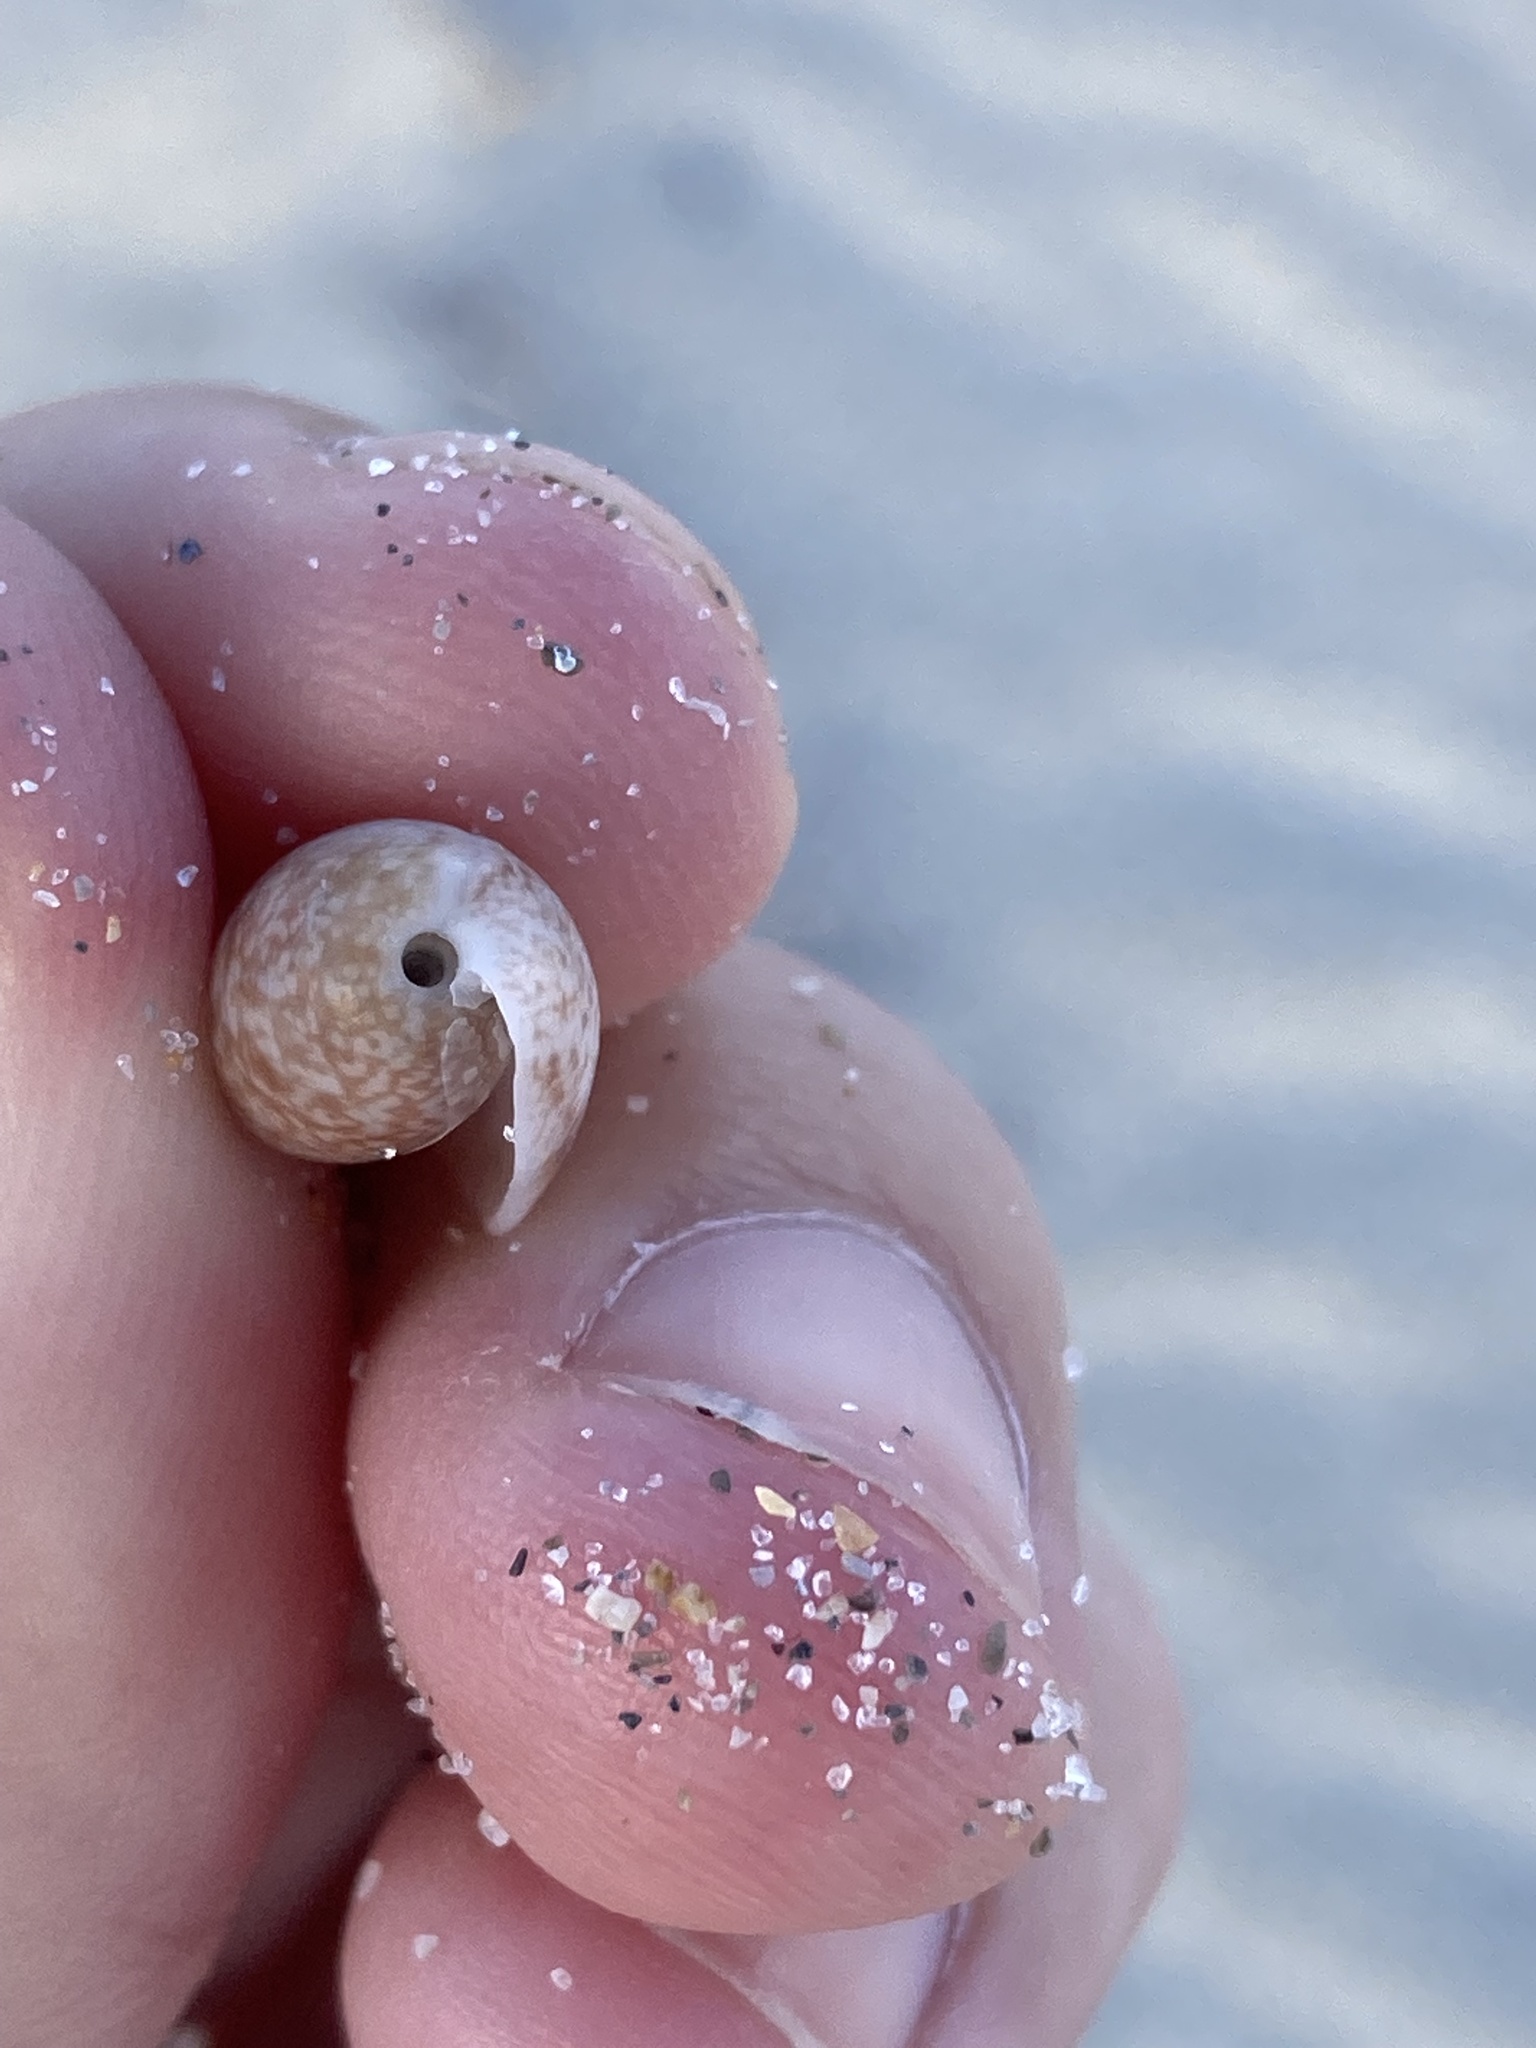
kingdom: Animalia
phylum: Mollusca
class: Gastropoda
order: Cephalaspidea
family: Bullidae
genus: Bulla
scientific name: Bulla occidentalis
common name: Common west-indian bubble
